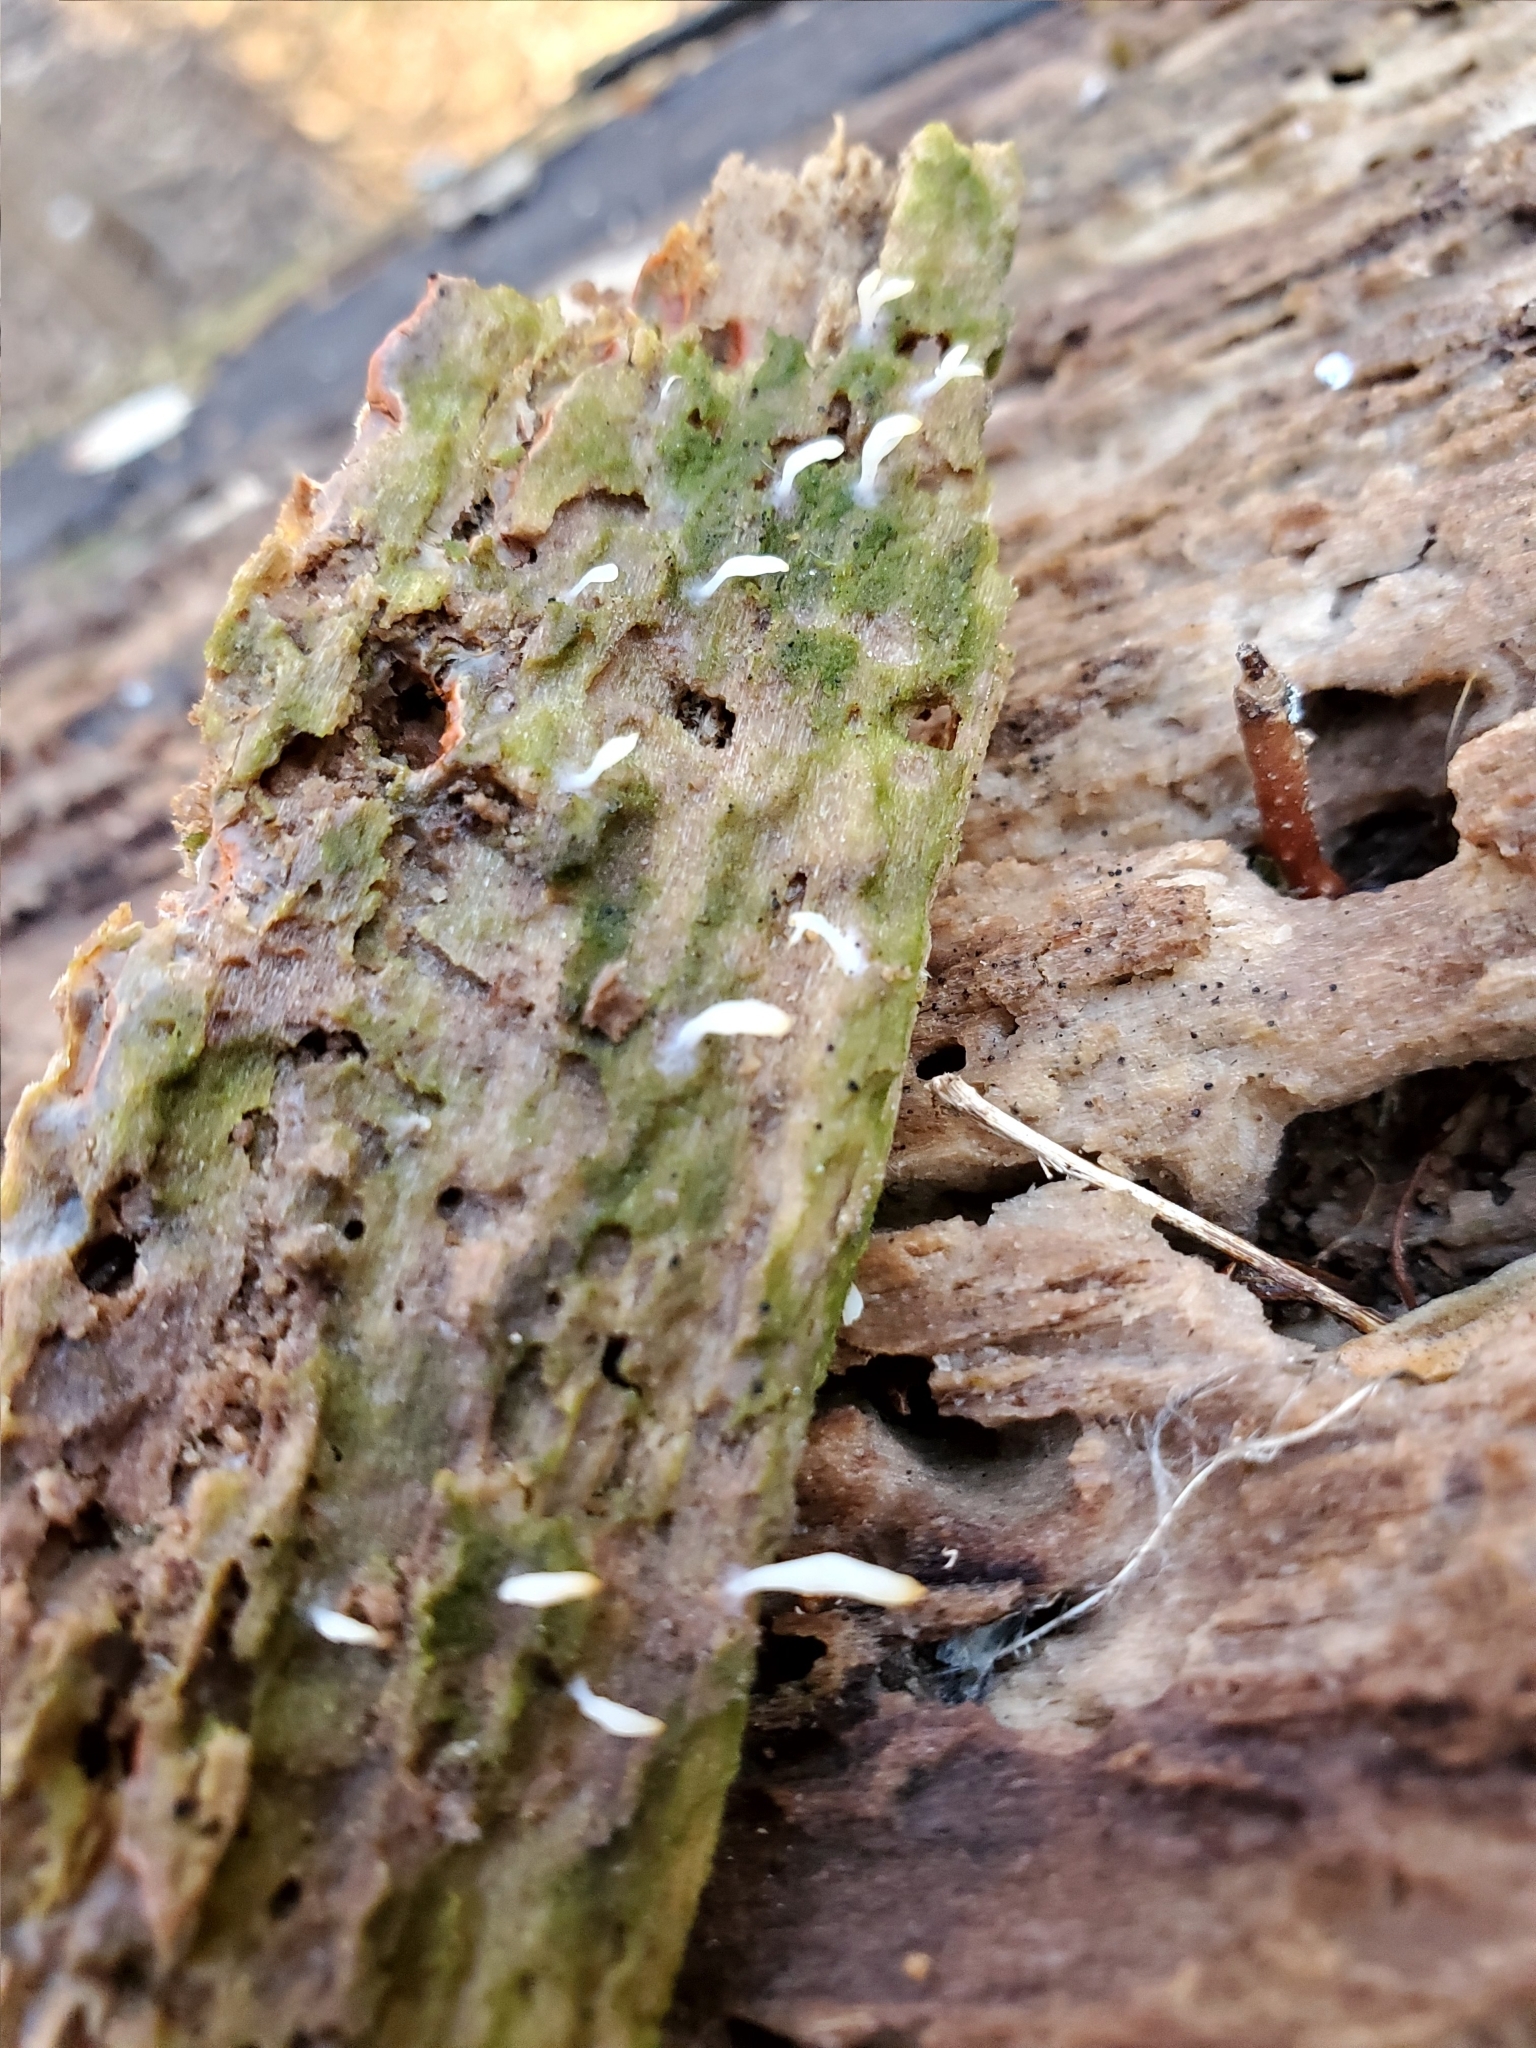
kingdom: Fungi
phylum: Basidiomycota
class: Agaricomycetes
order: Cantharellales
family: Hydnaceae
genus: Multiclavula
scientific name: Multiclavula mucida
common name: White green-algae coral
